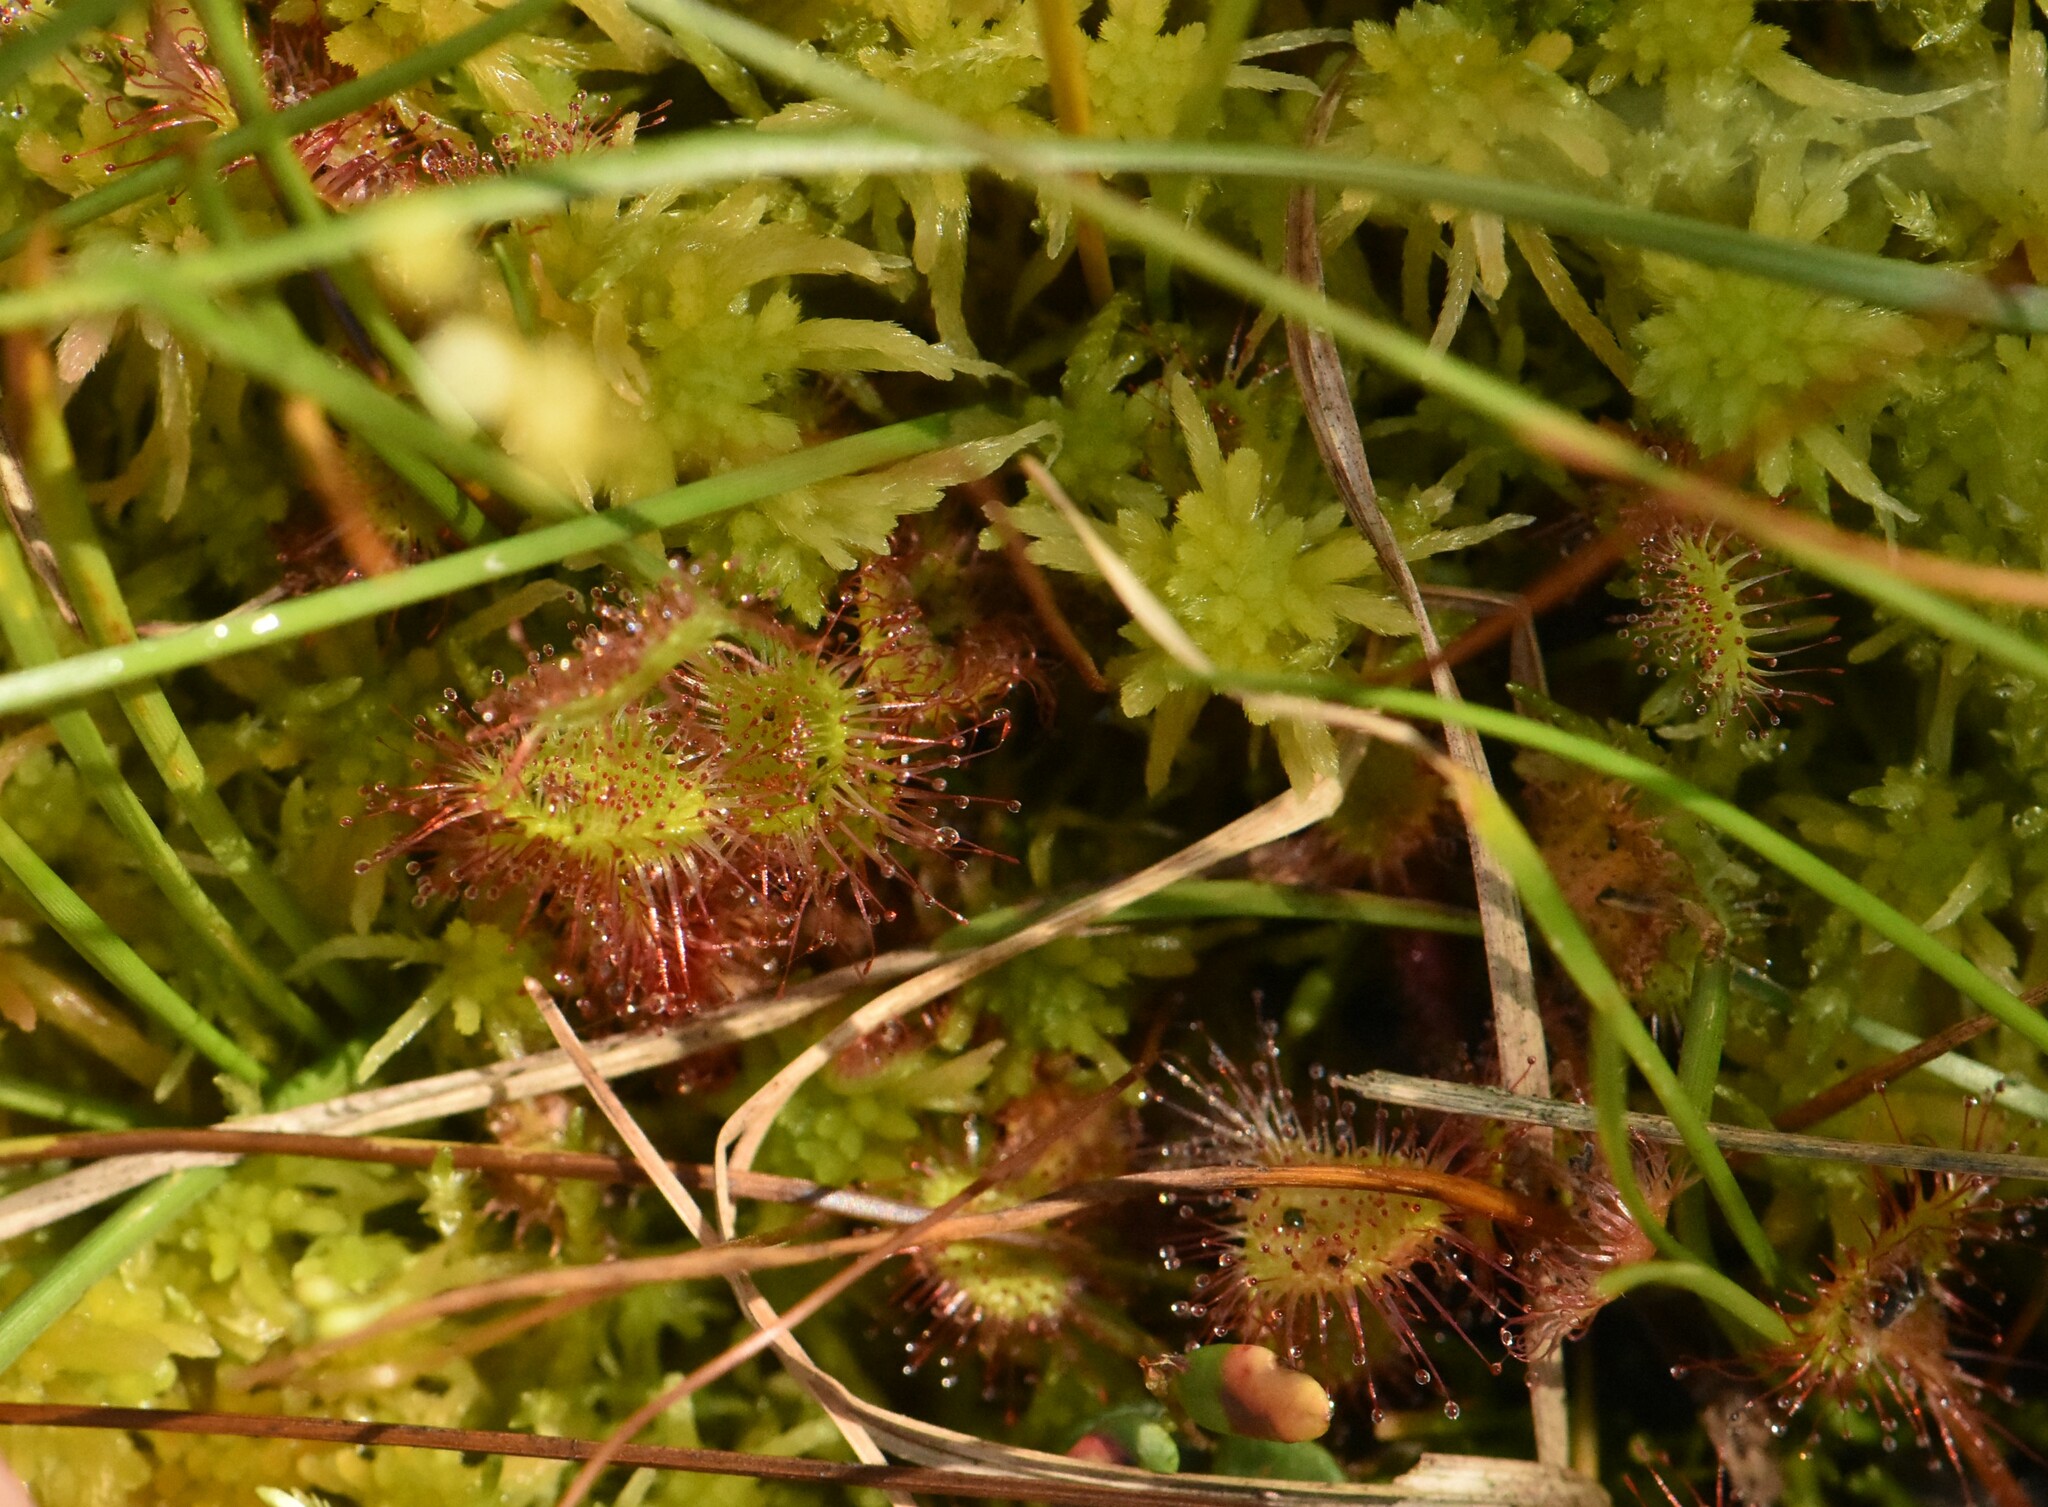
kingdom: Plantae
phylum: Tracheophyta
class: Magnoliopsida
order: Caryophyllales
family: Droseraceae
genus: Drosera
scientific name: Drosera rotundifolia
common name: Round-leaved sundew
